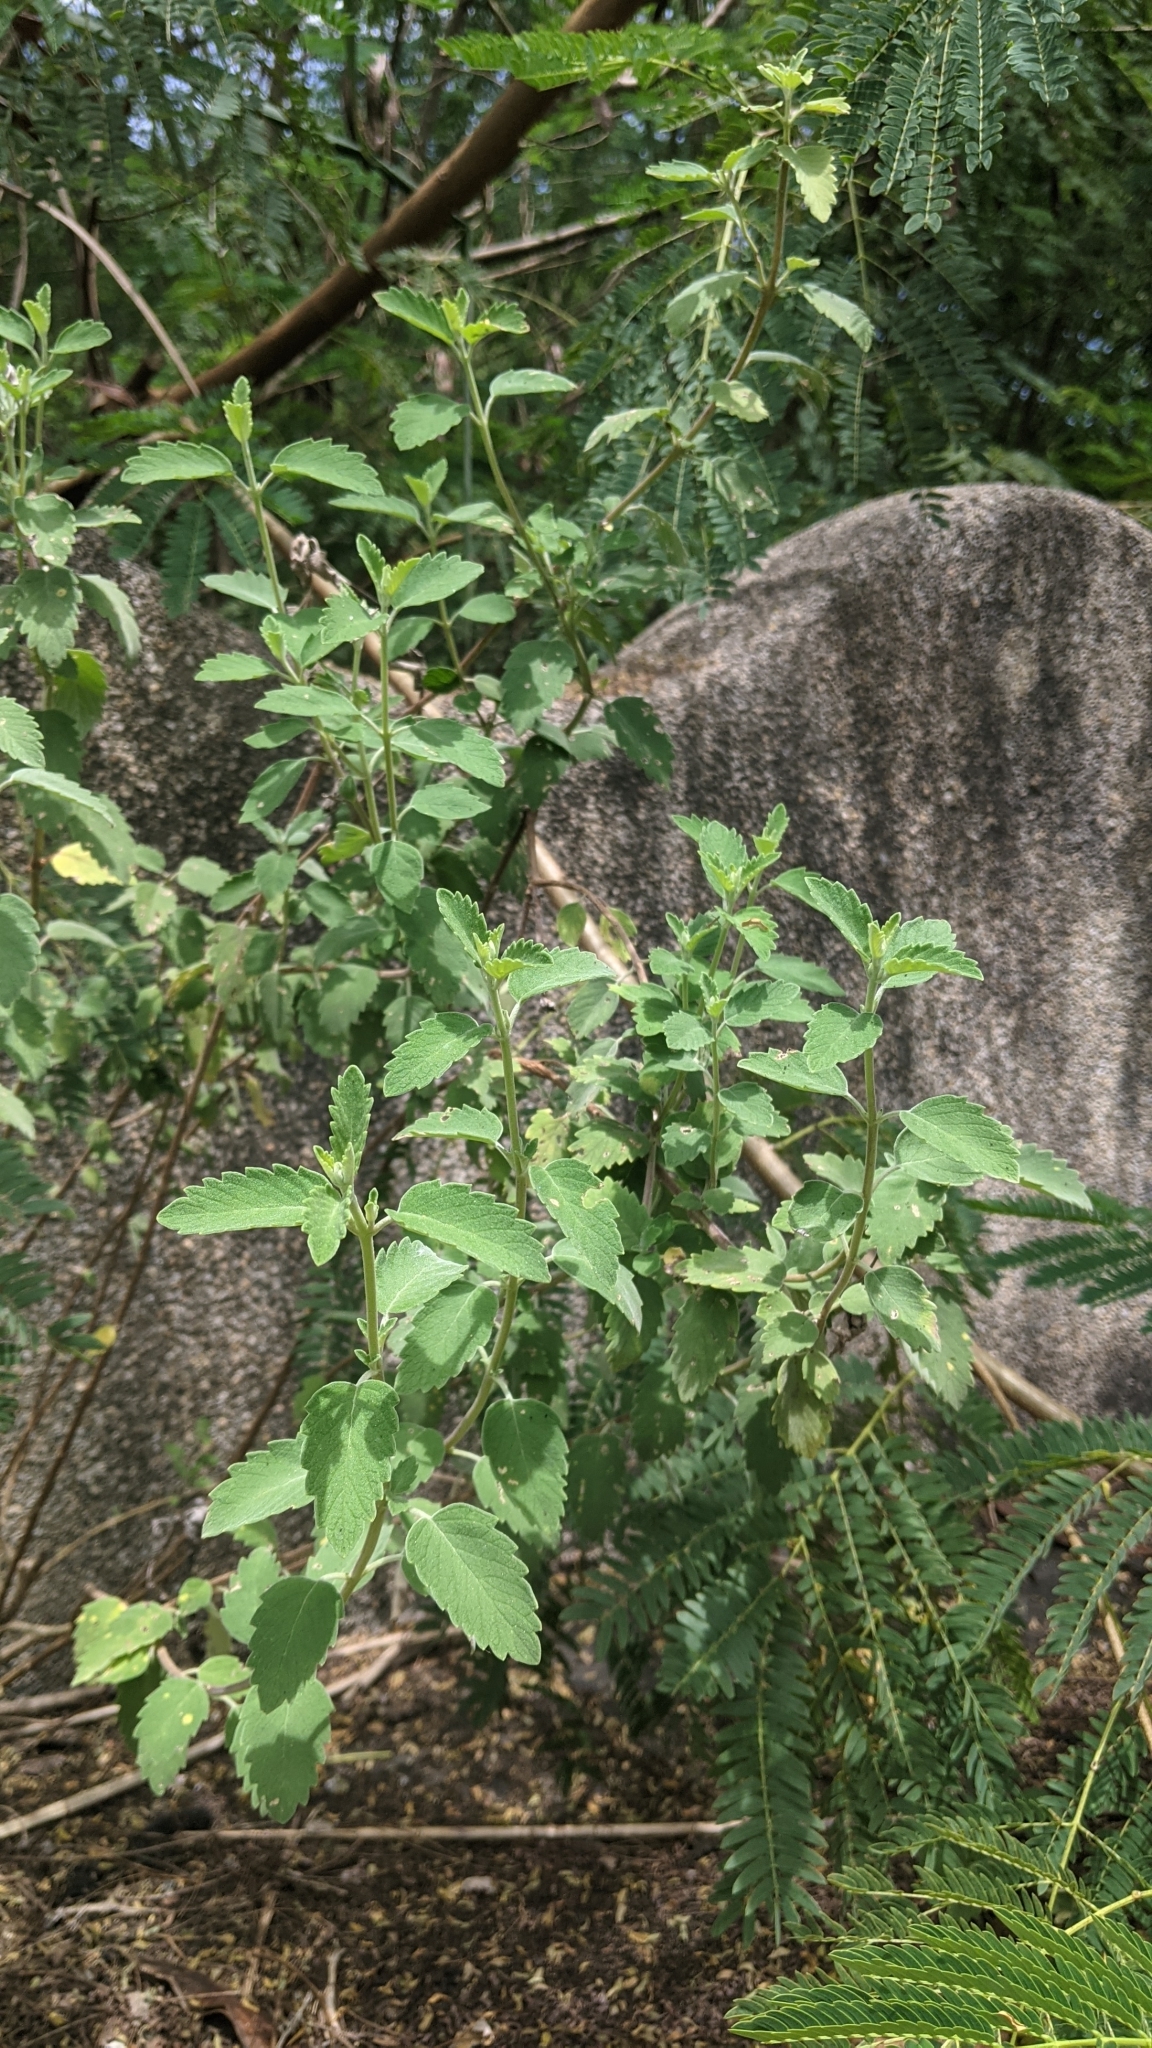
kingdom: Plantae
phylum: Tracheophyta
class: Magnoliopsida
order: Lamiales
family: Lamiaceae
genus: Caryopteris
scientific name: Caryopteris incana
